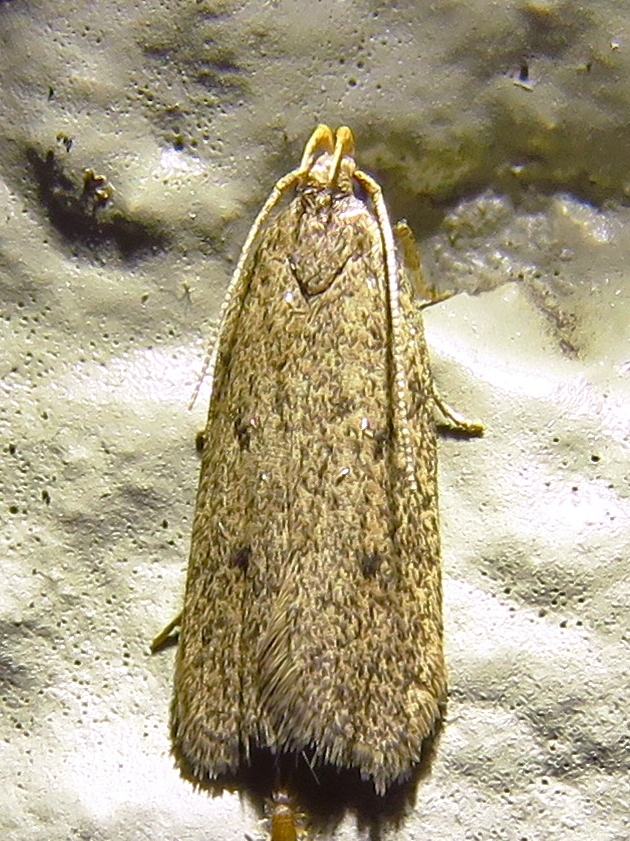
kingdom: Animalia
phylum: Arthropoda
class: Insecta
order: Lepidoptera
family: Autostichidae
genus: Glyphidocera
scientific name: Glyphidocera juniperella
